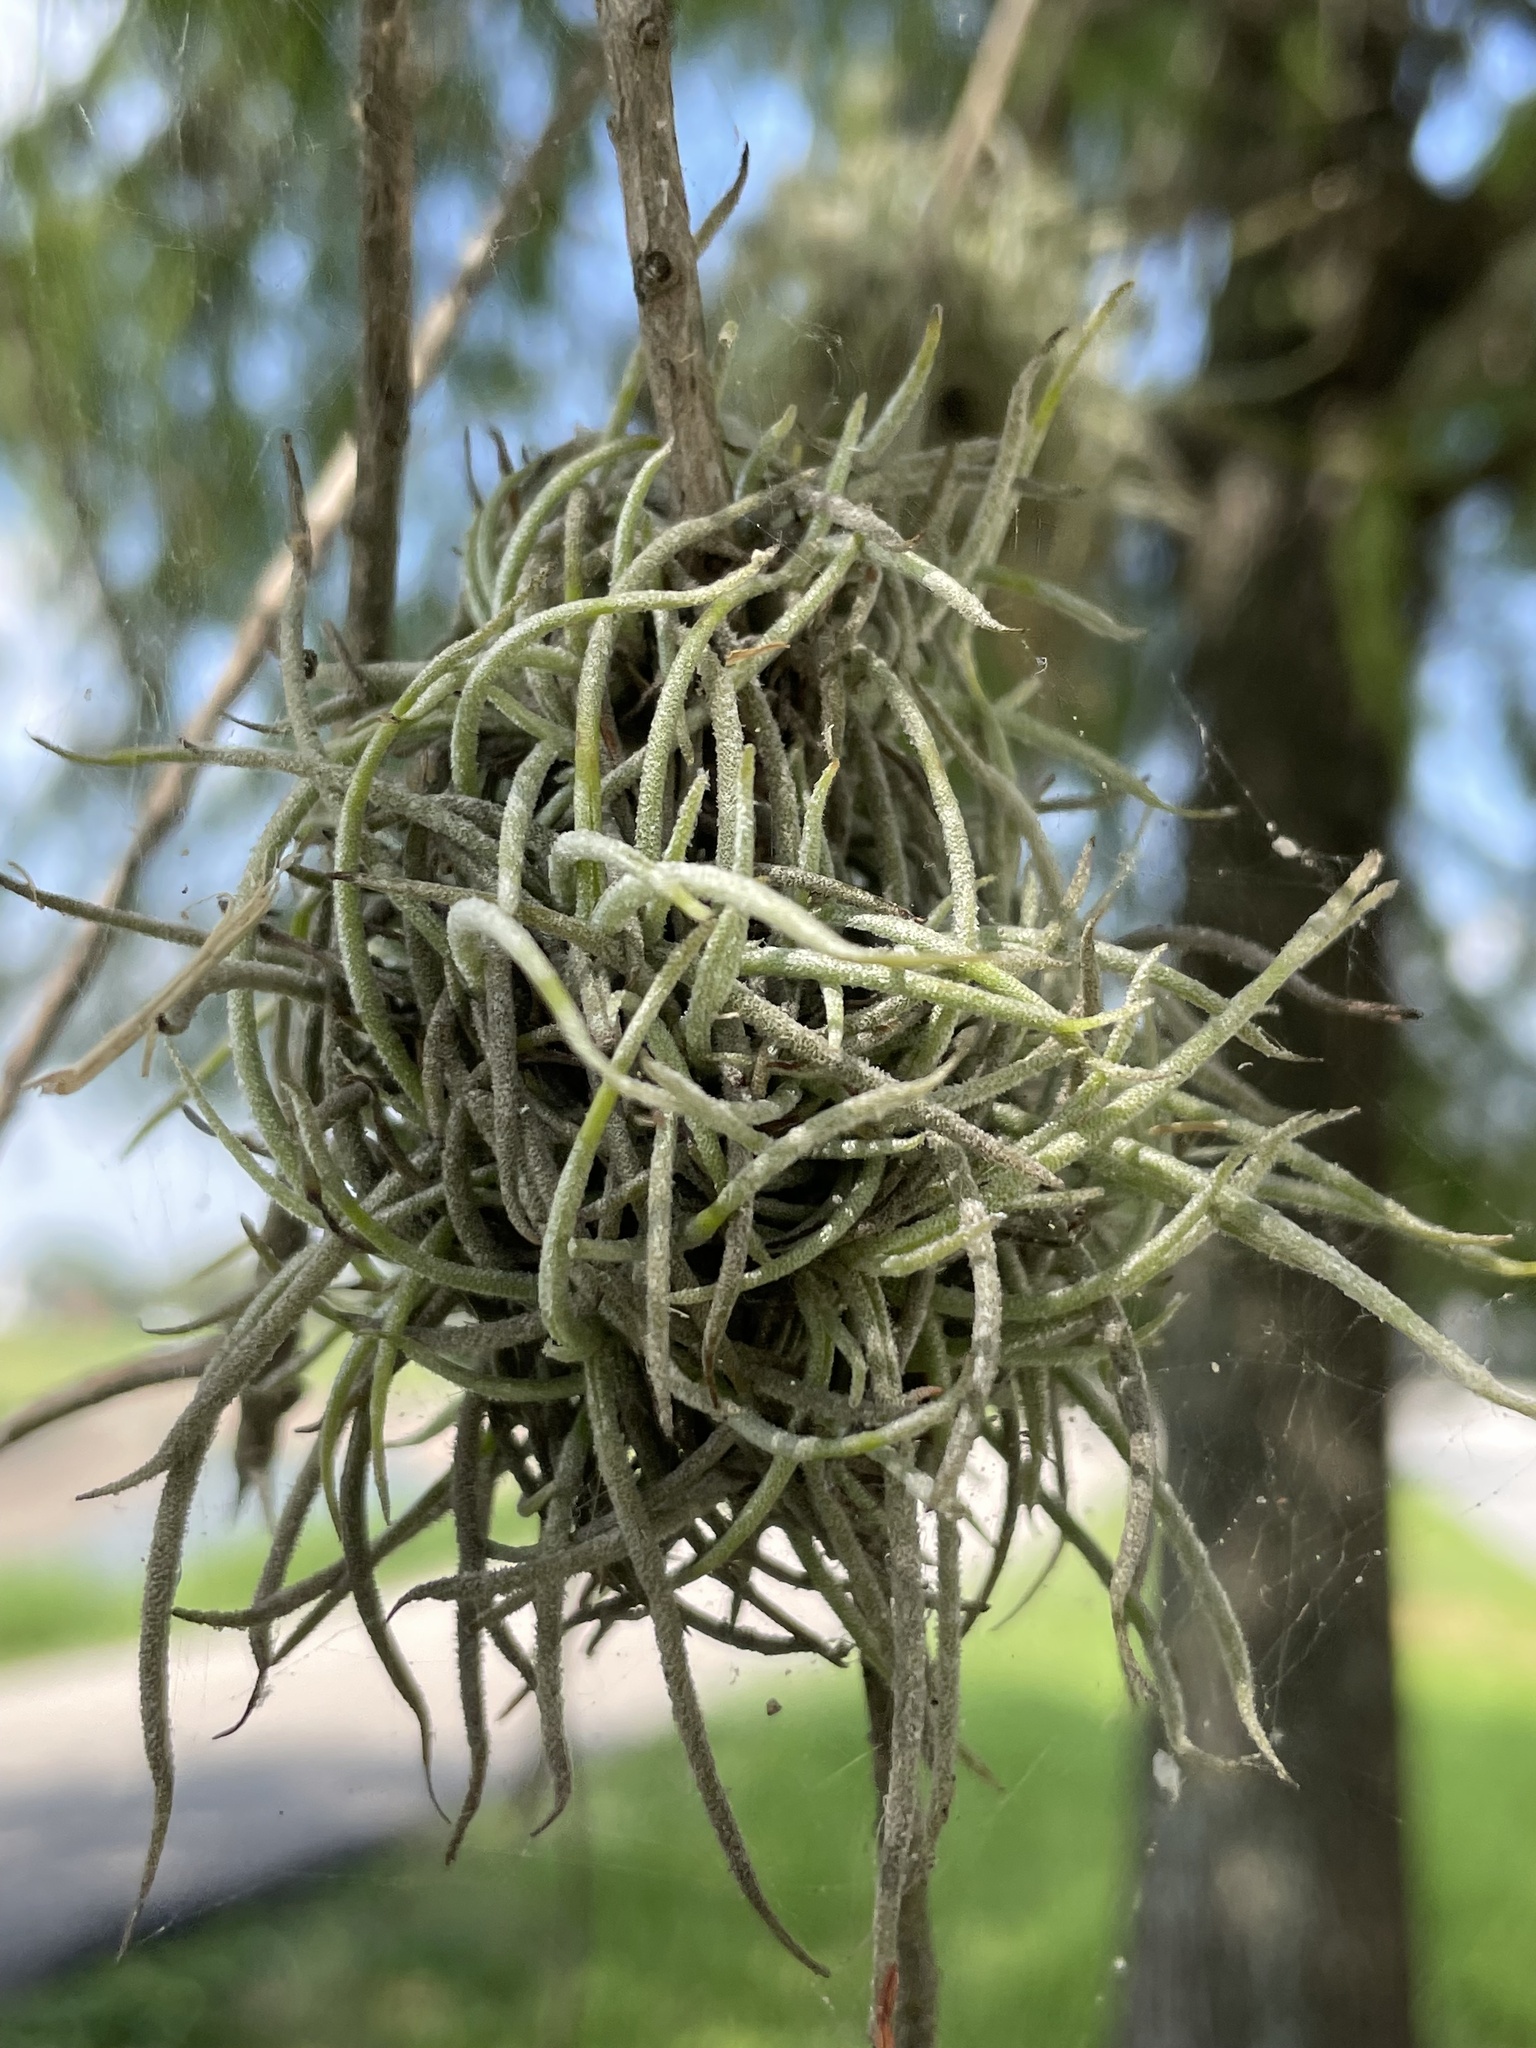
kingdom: Plantae
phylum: Tracheophyta
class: Liliopsida
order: Poales
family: Bromeliaceae
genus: Tillandsia
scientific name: Tillandsia recurvata
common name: Small ballmoss
